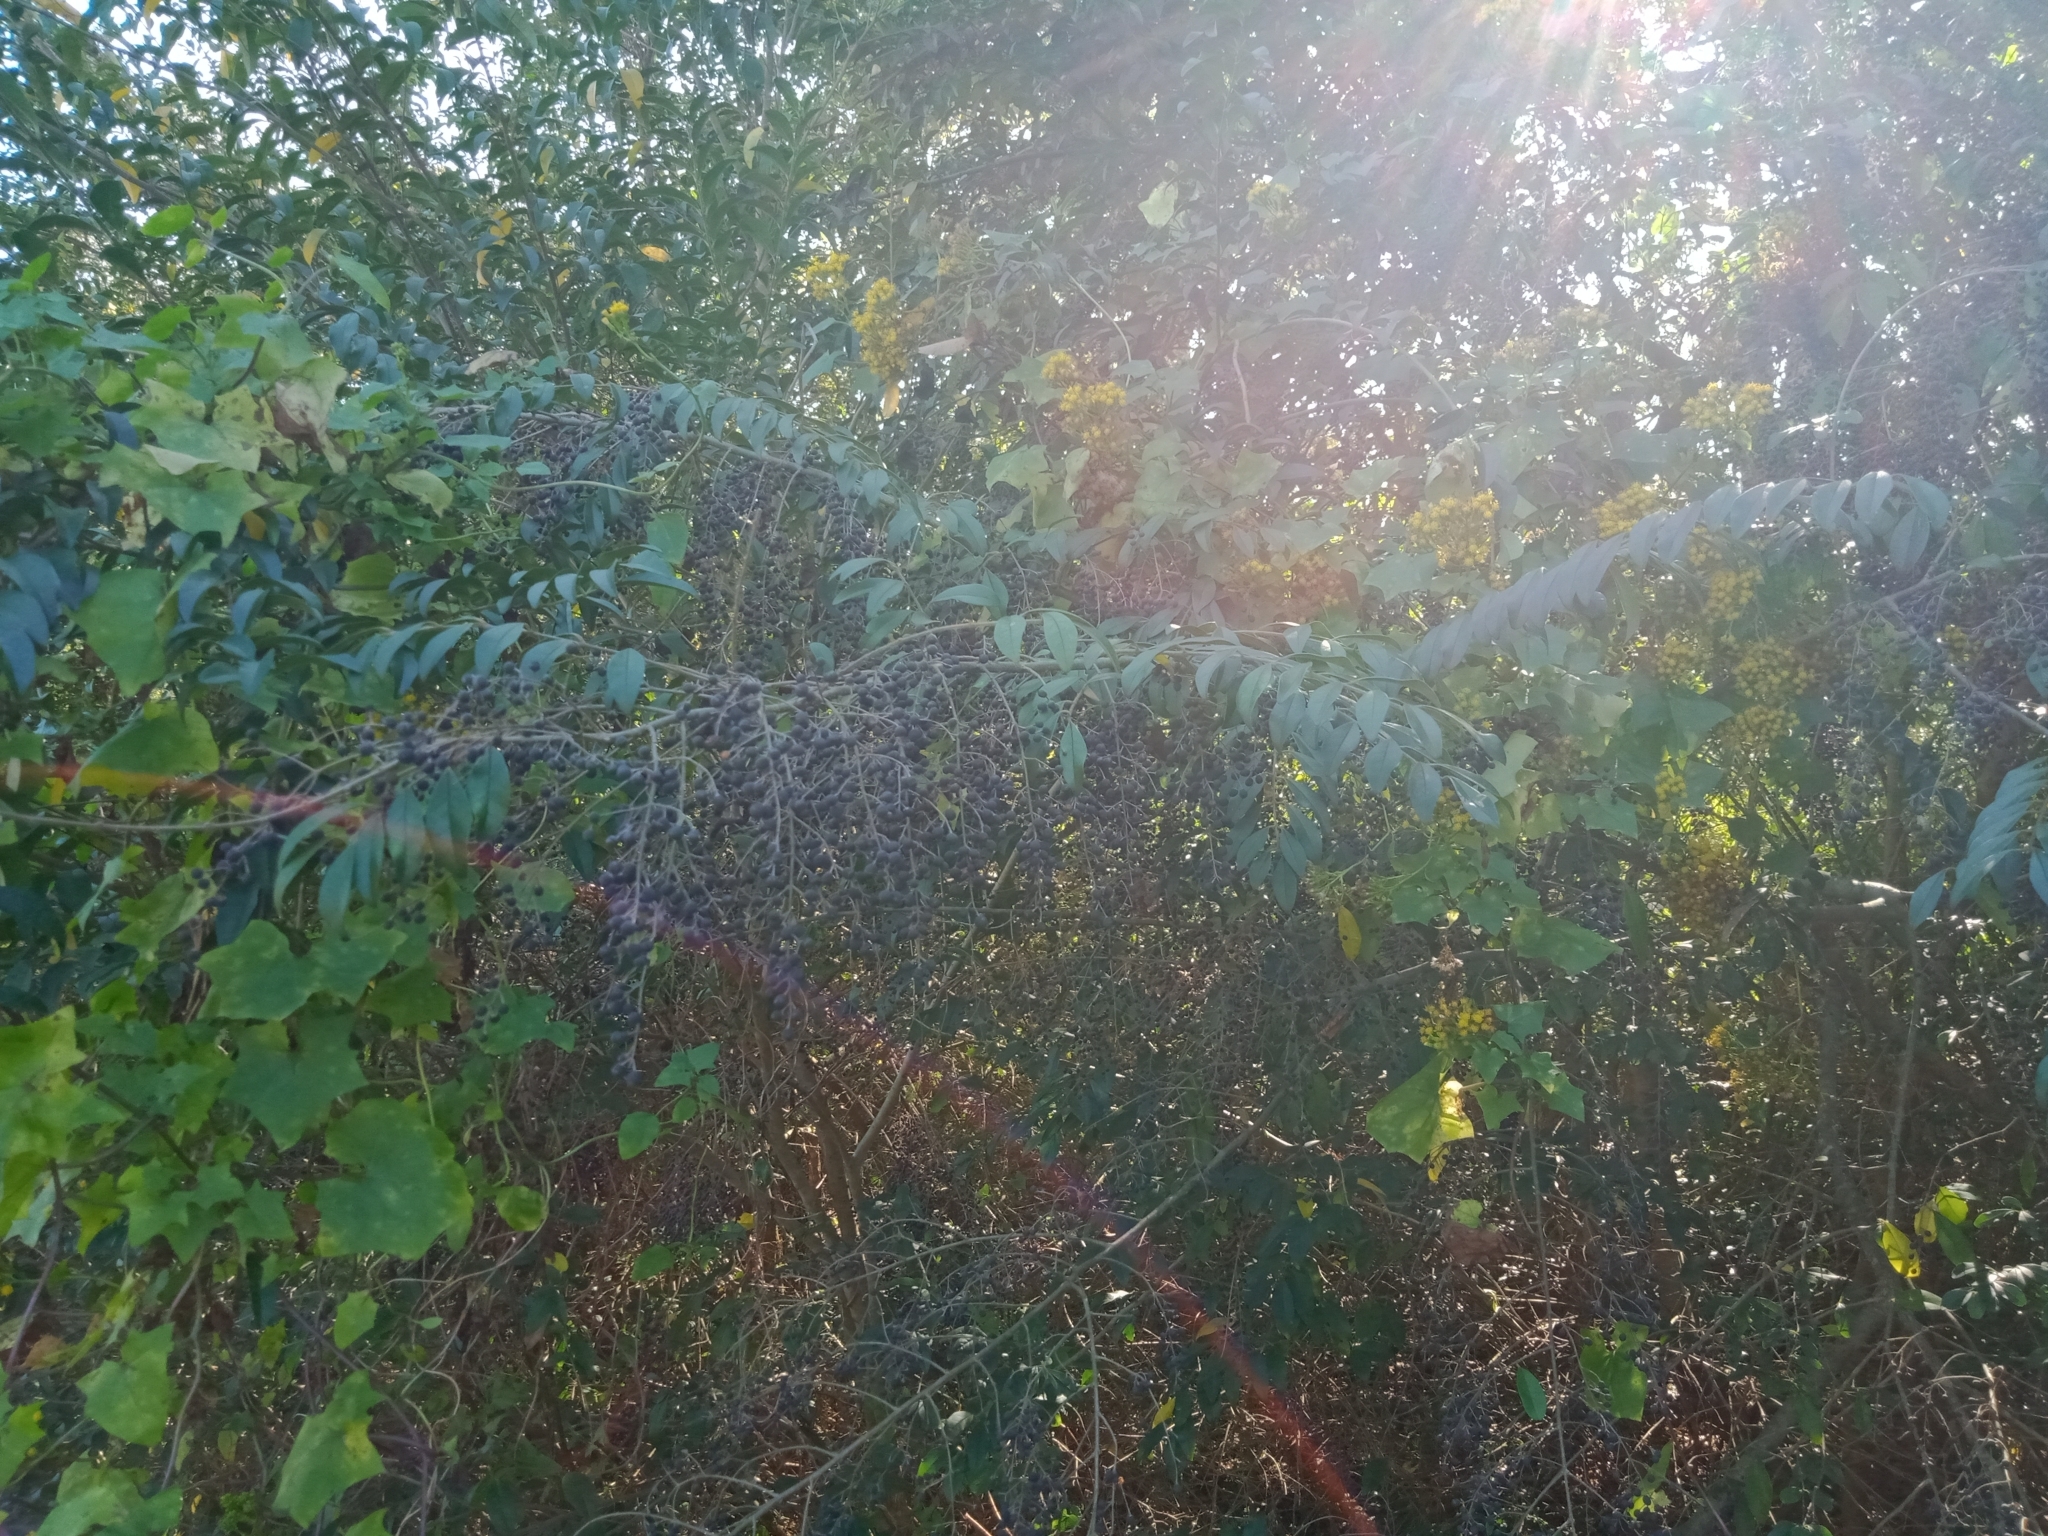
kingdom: Plantae
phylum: Tracheophyta
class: Magnoliopsida
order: Lamiales
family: Oleaceae
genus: Ligustrum
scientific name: Ligustrum sinense
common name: Chinese privet
